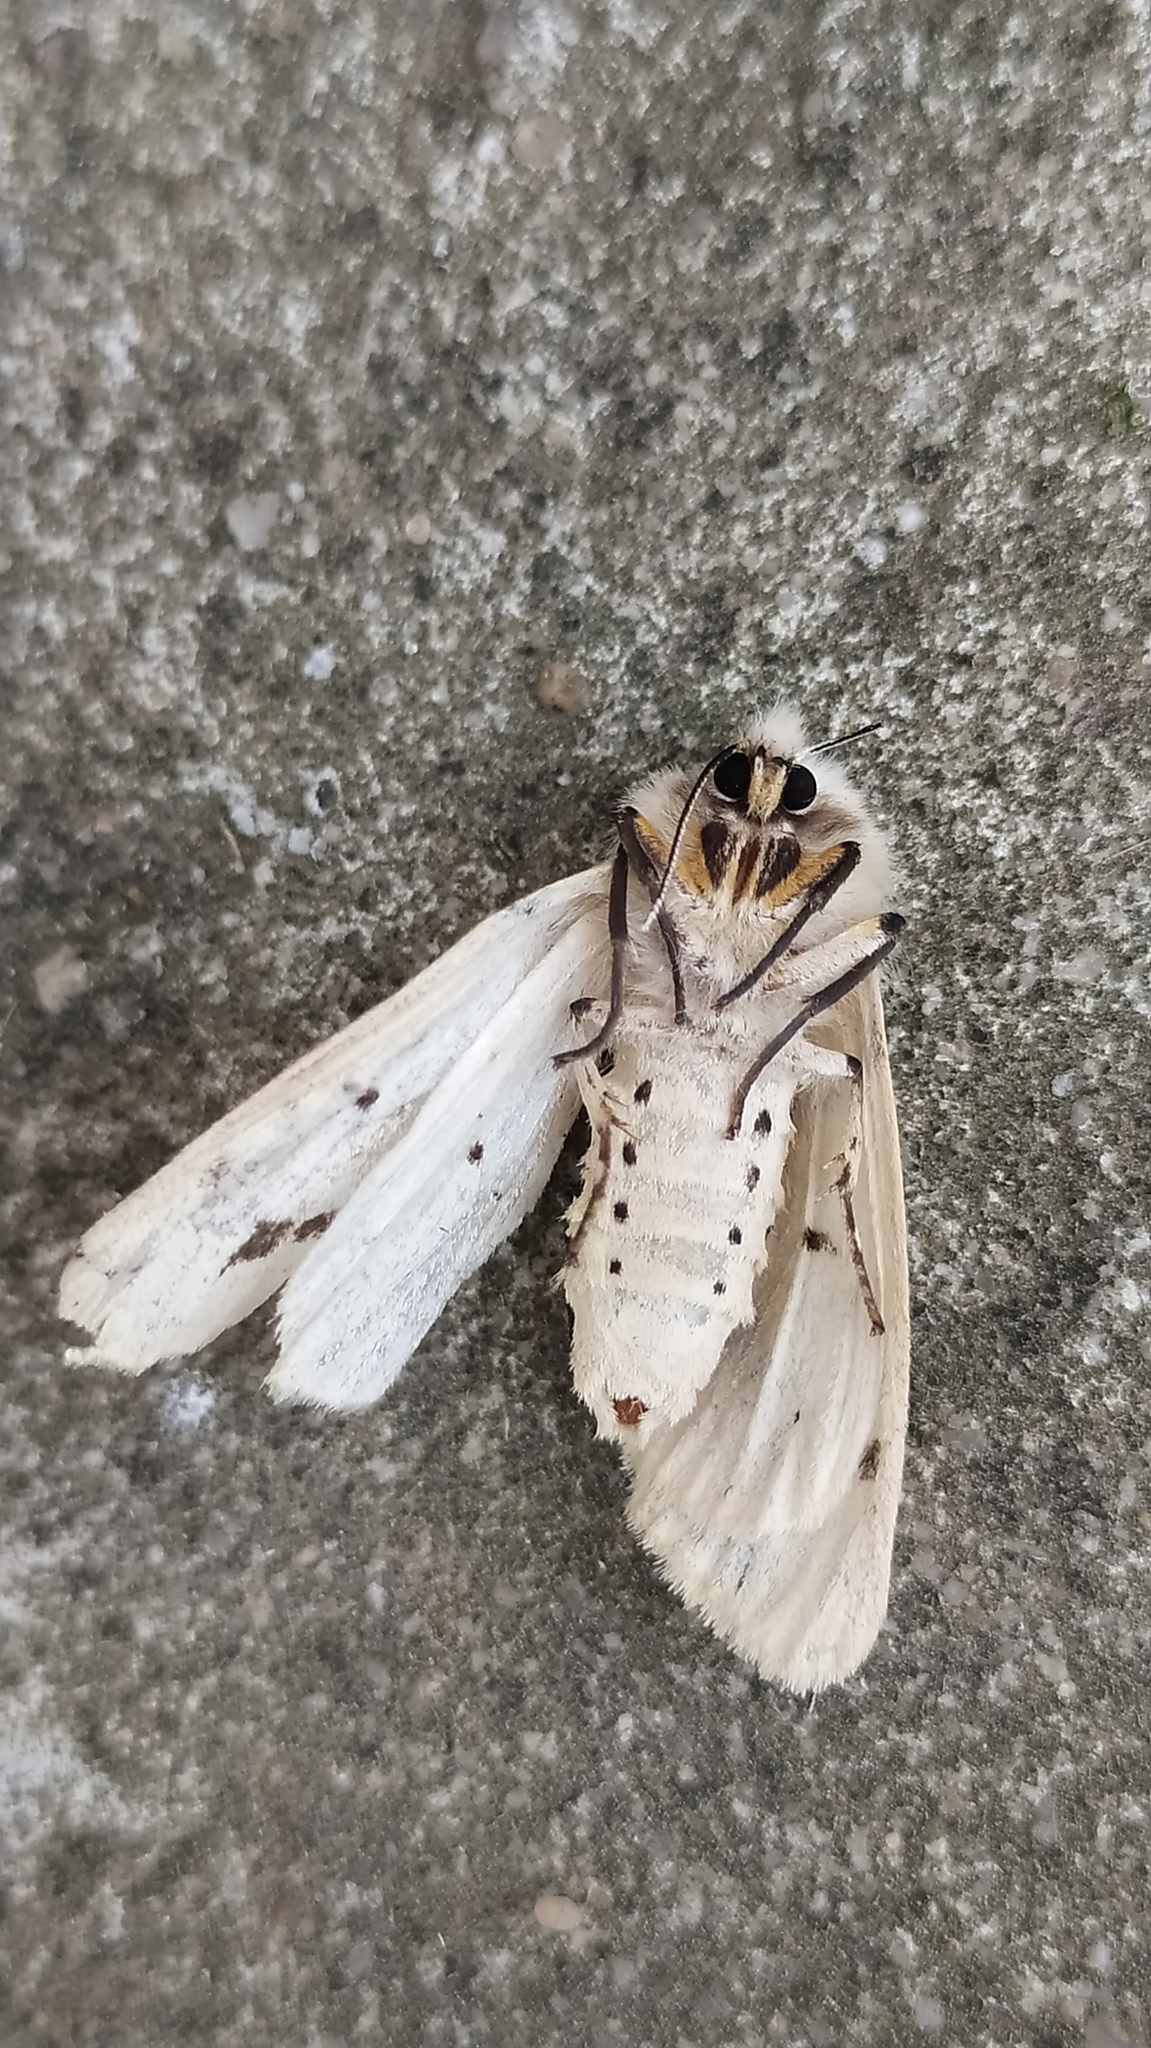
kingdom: Animalia
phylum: Arthropoda
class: Insecta
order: Lepidoptera
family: Erebidae
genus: Spilarctia
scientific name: Spilarctia lutea
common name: Buff ermine
